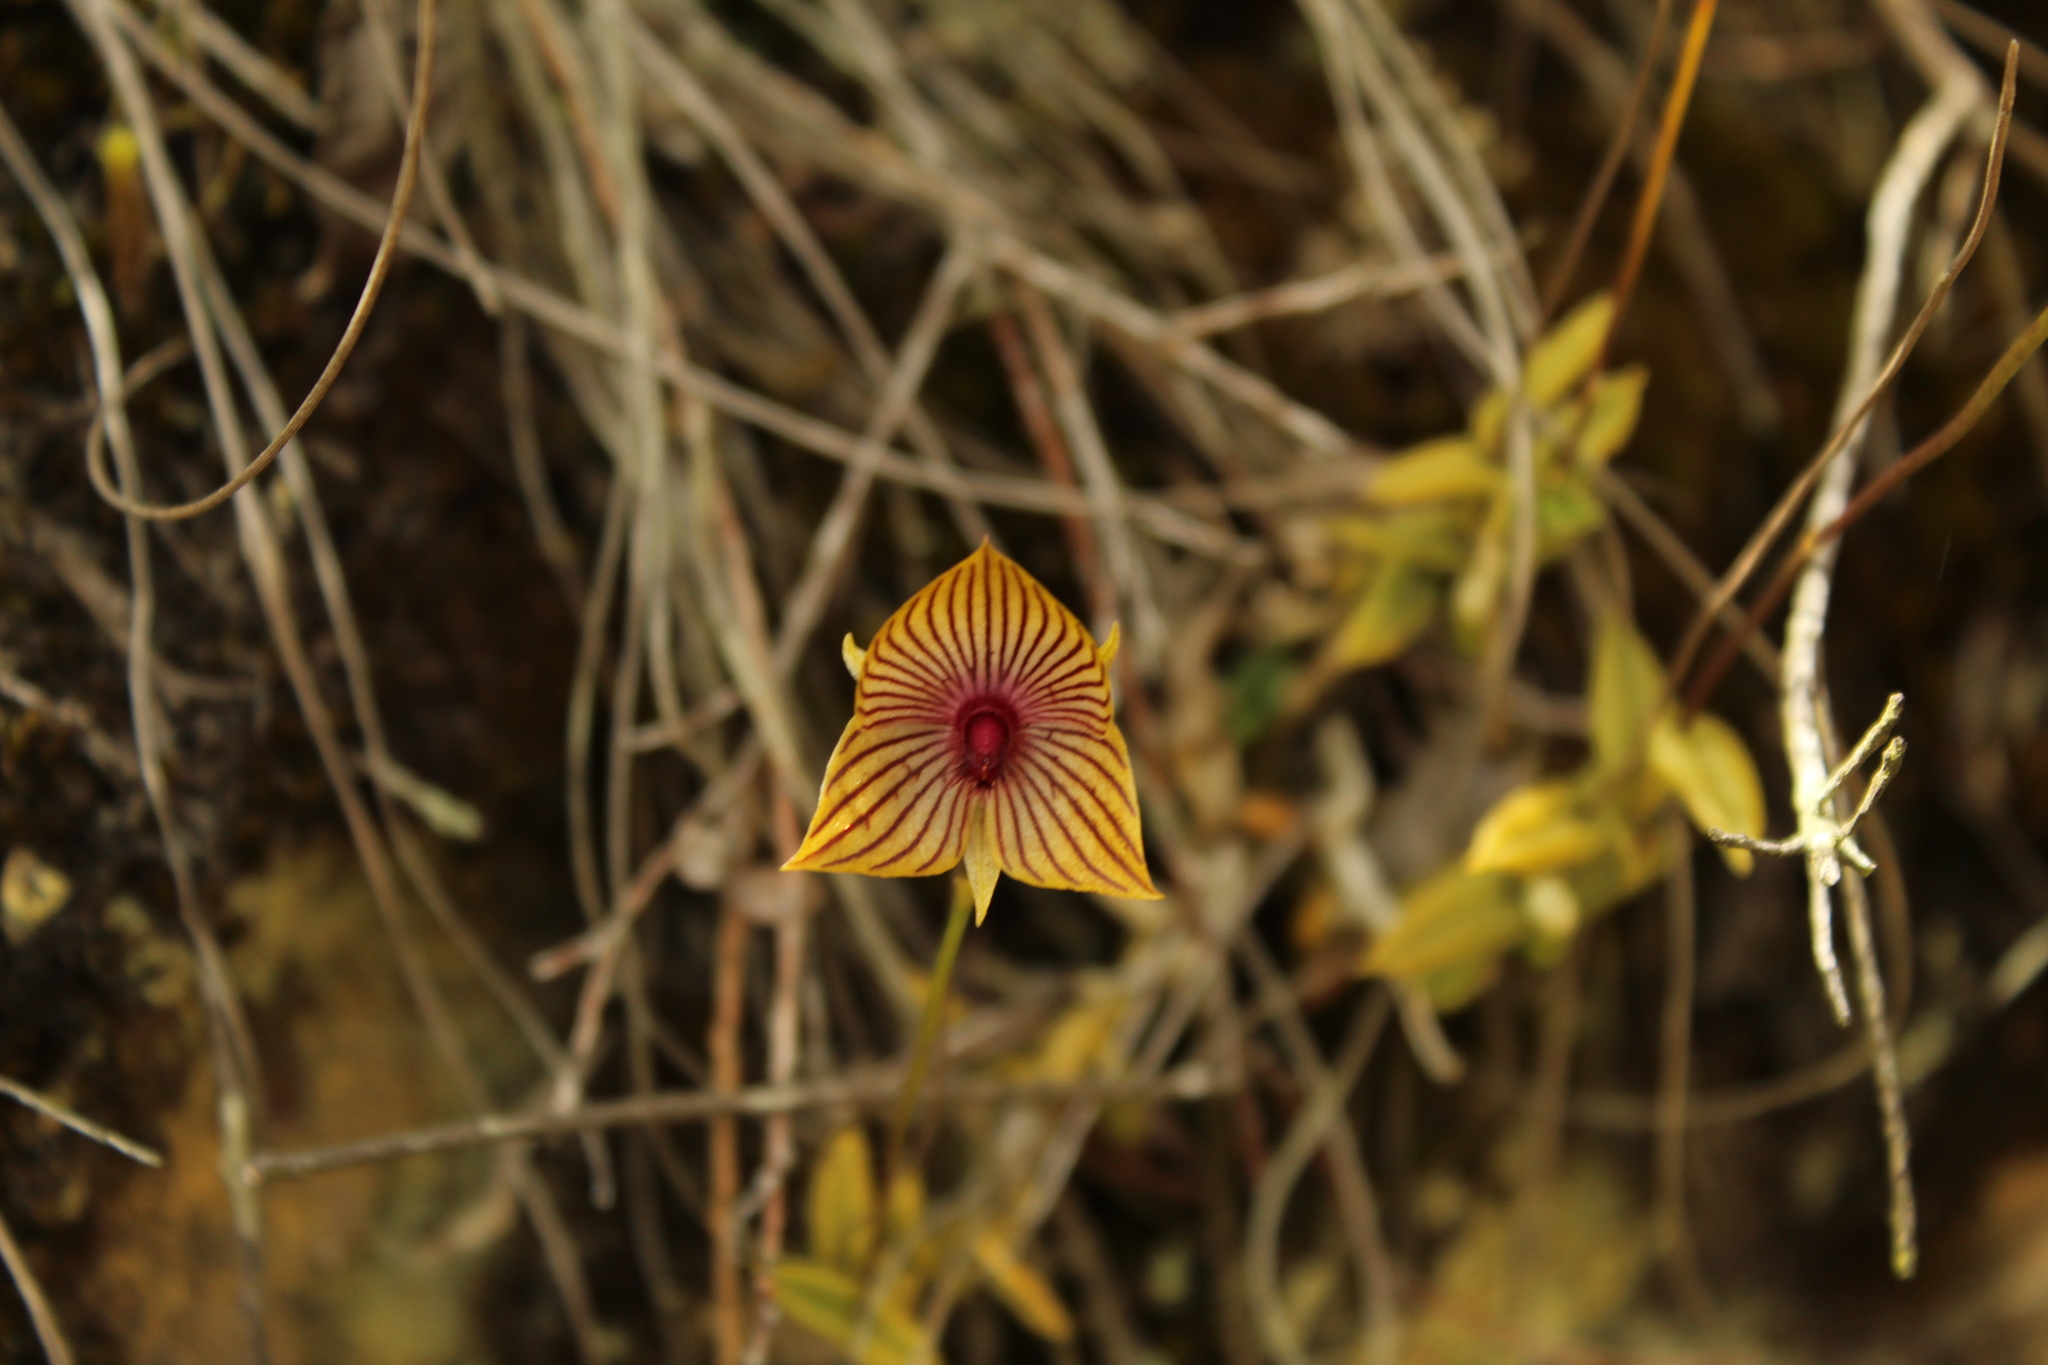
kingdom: Plantae
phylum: Tracheophyta
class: Liliopsida
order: Asparagales
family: Orchidaceae
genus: Telipogon
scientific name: Telipogon nervosus
